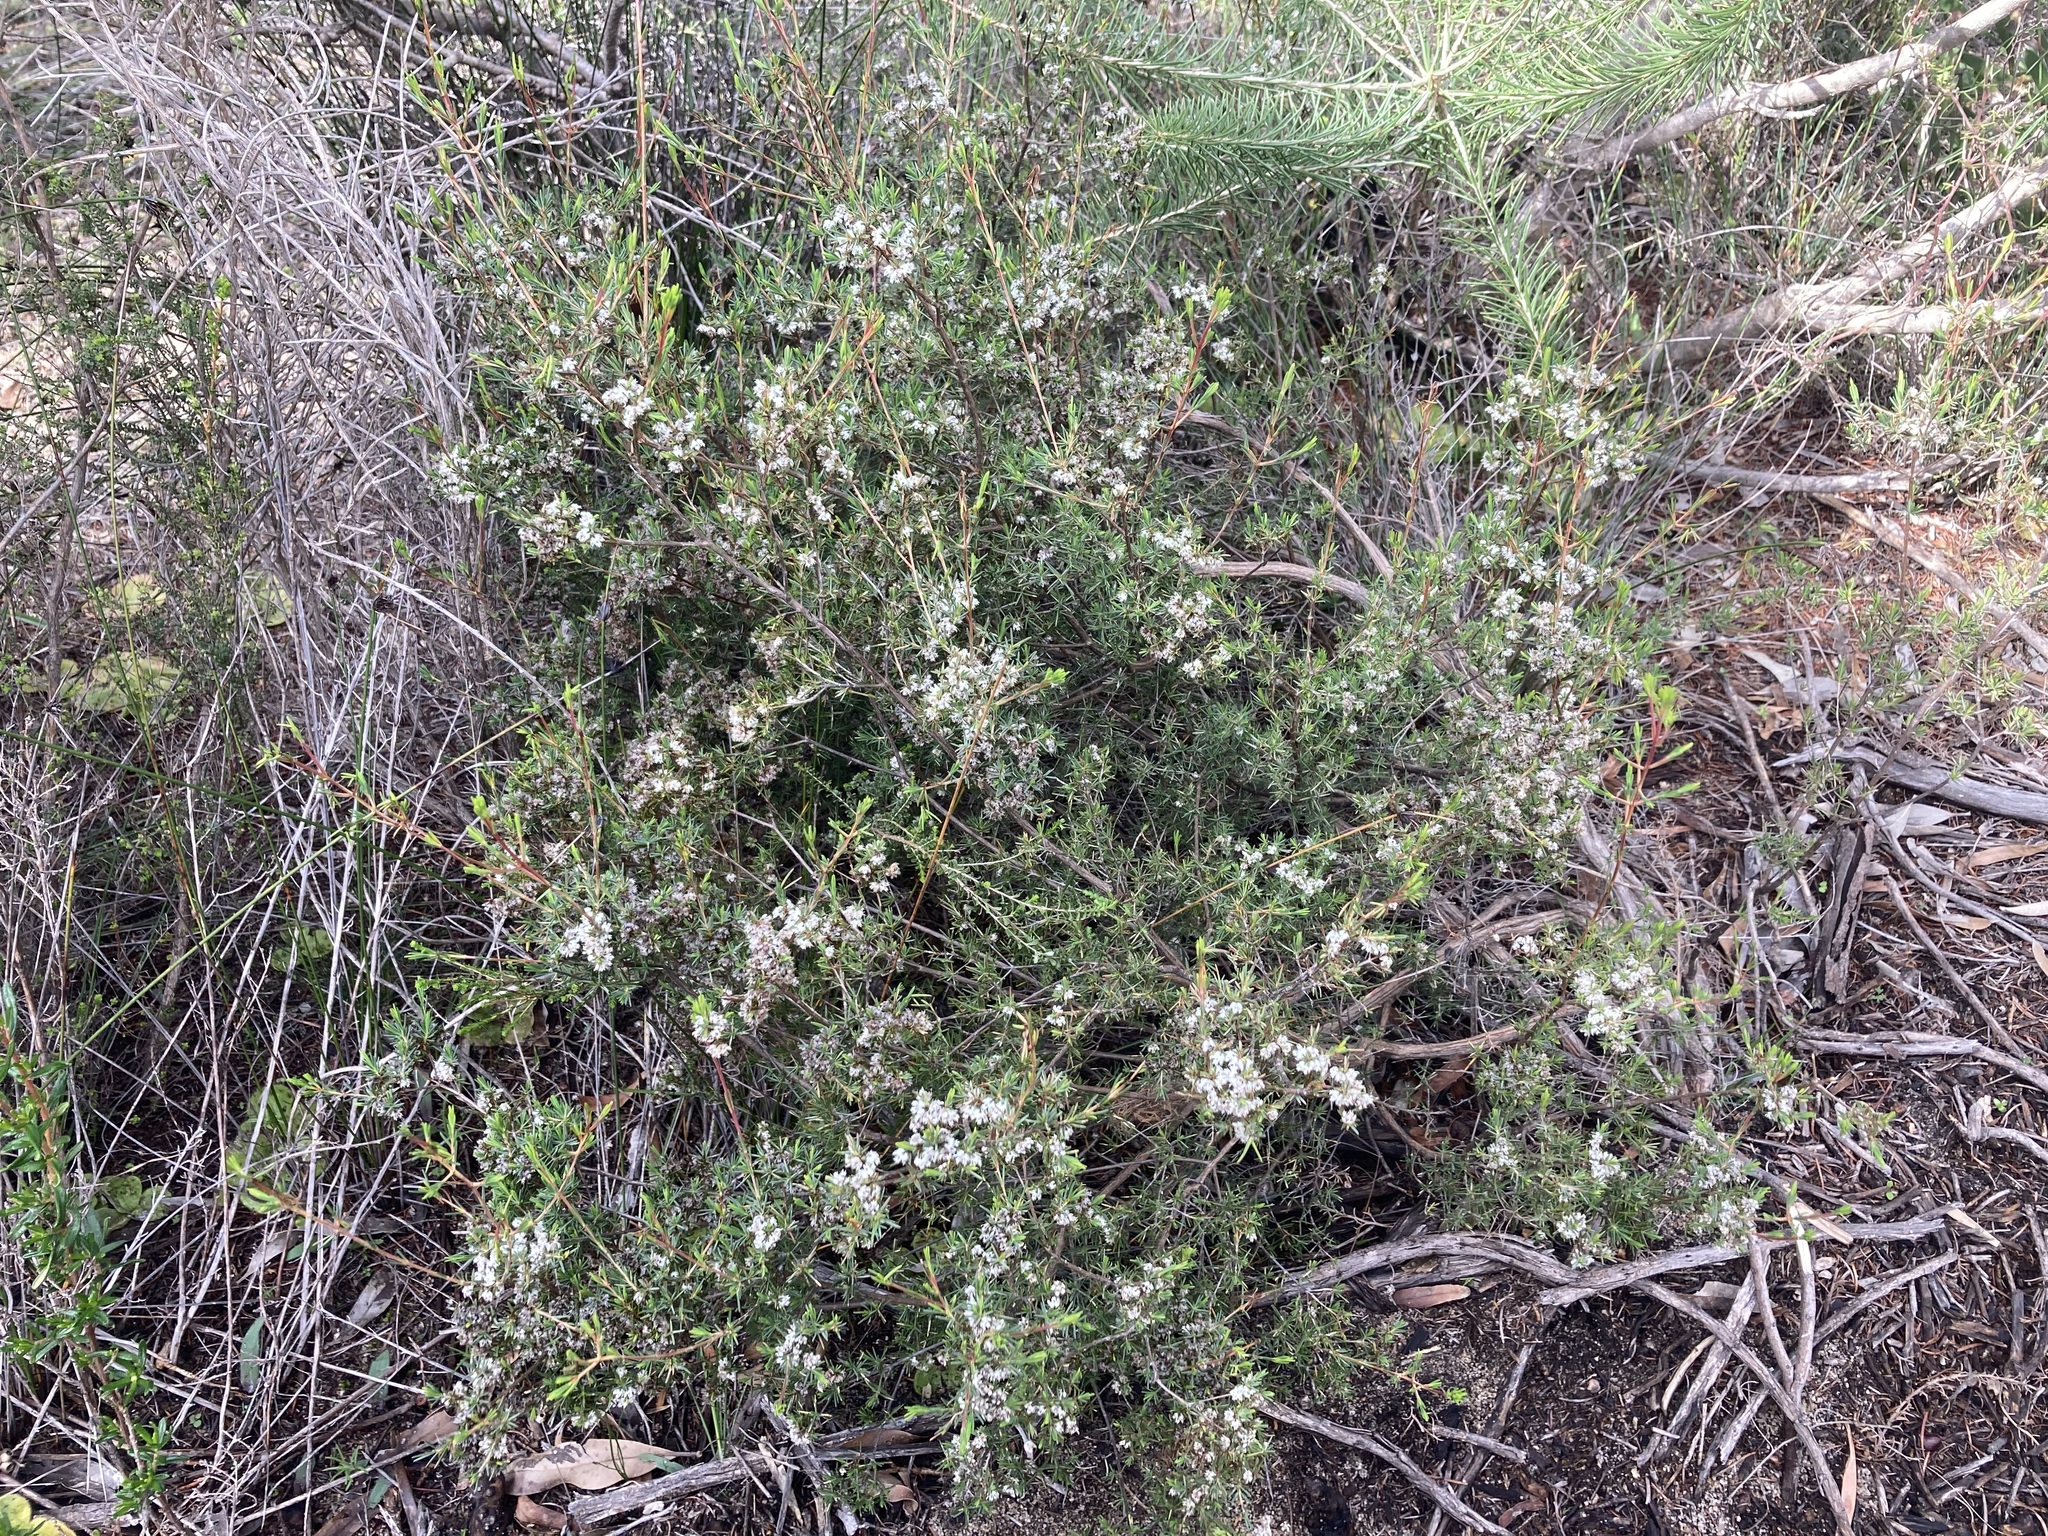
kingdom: Plantae
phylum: Tracheophyta
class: Magnoliopsida
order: Myrtales
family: Myrtaceae
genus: Verticordia
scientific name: Verticordia densiflora
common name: Compact feather-flower
